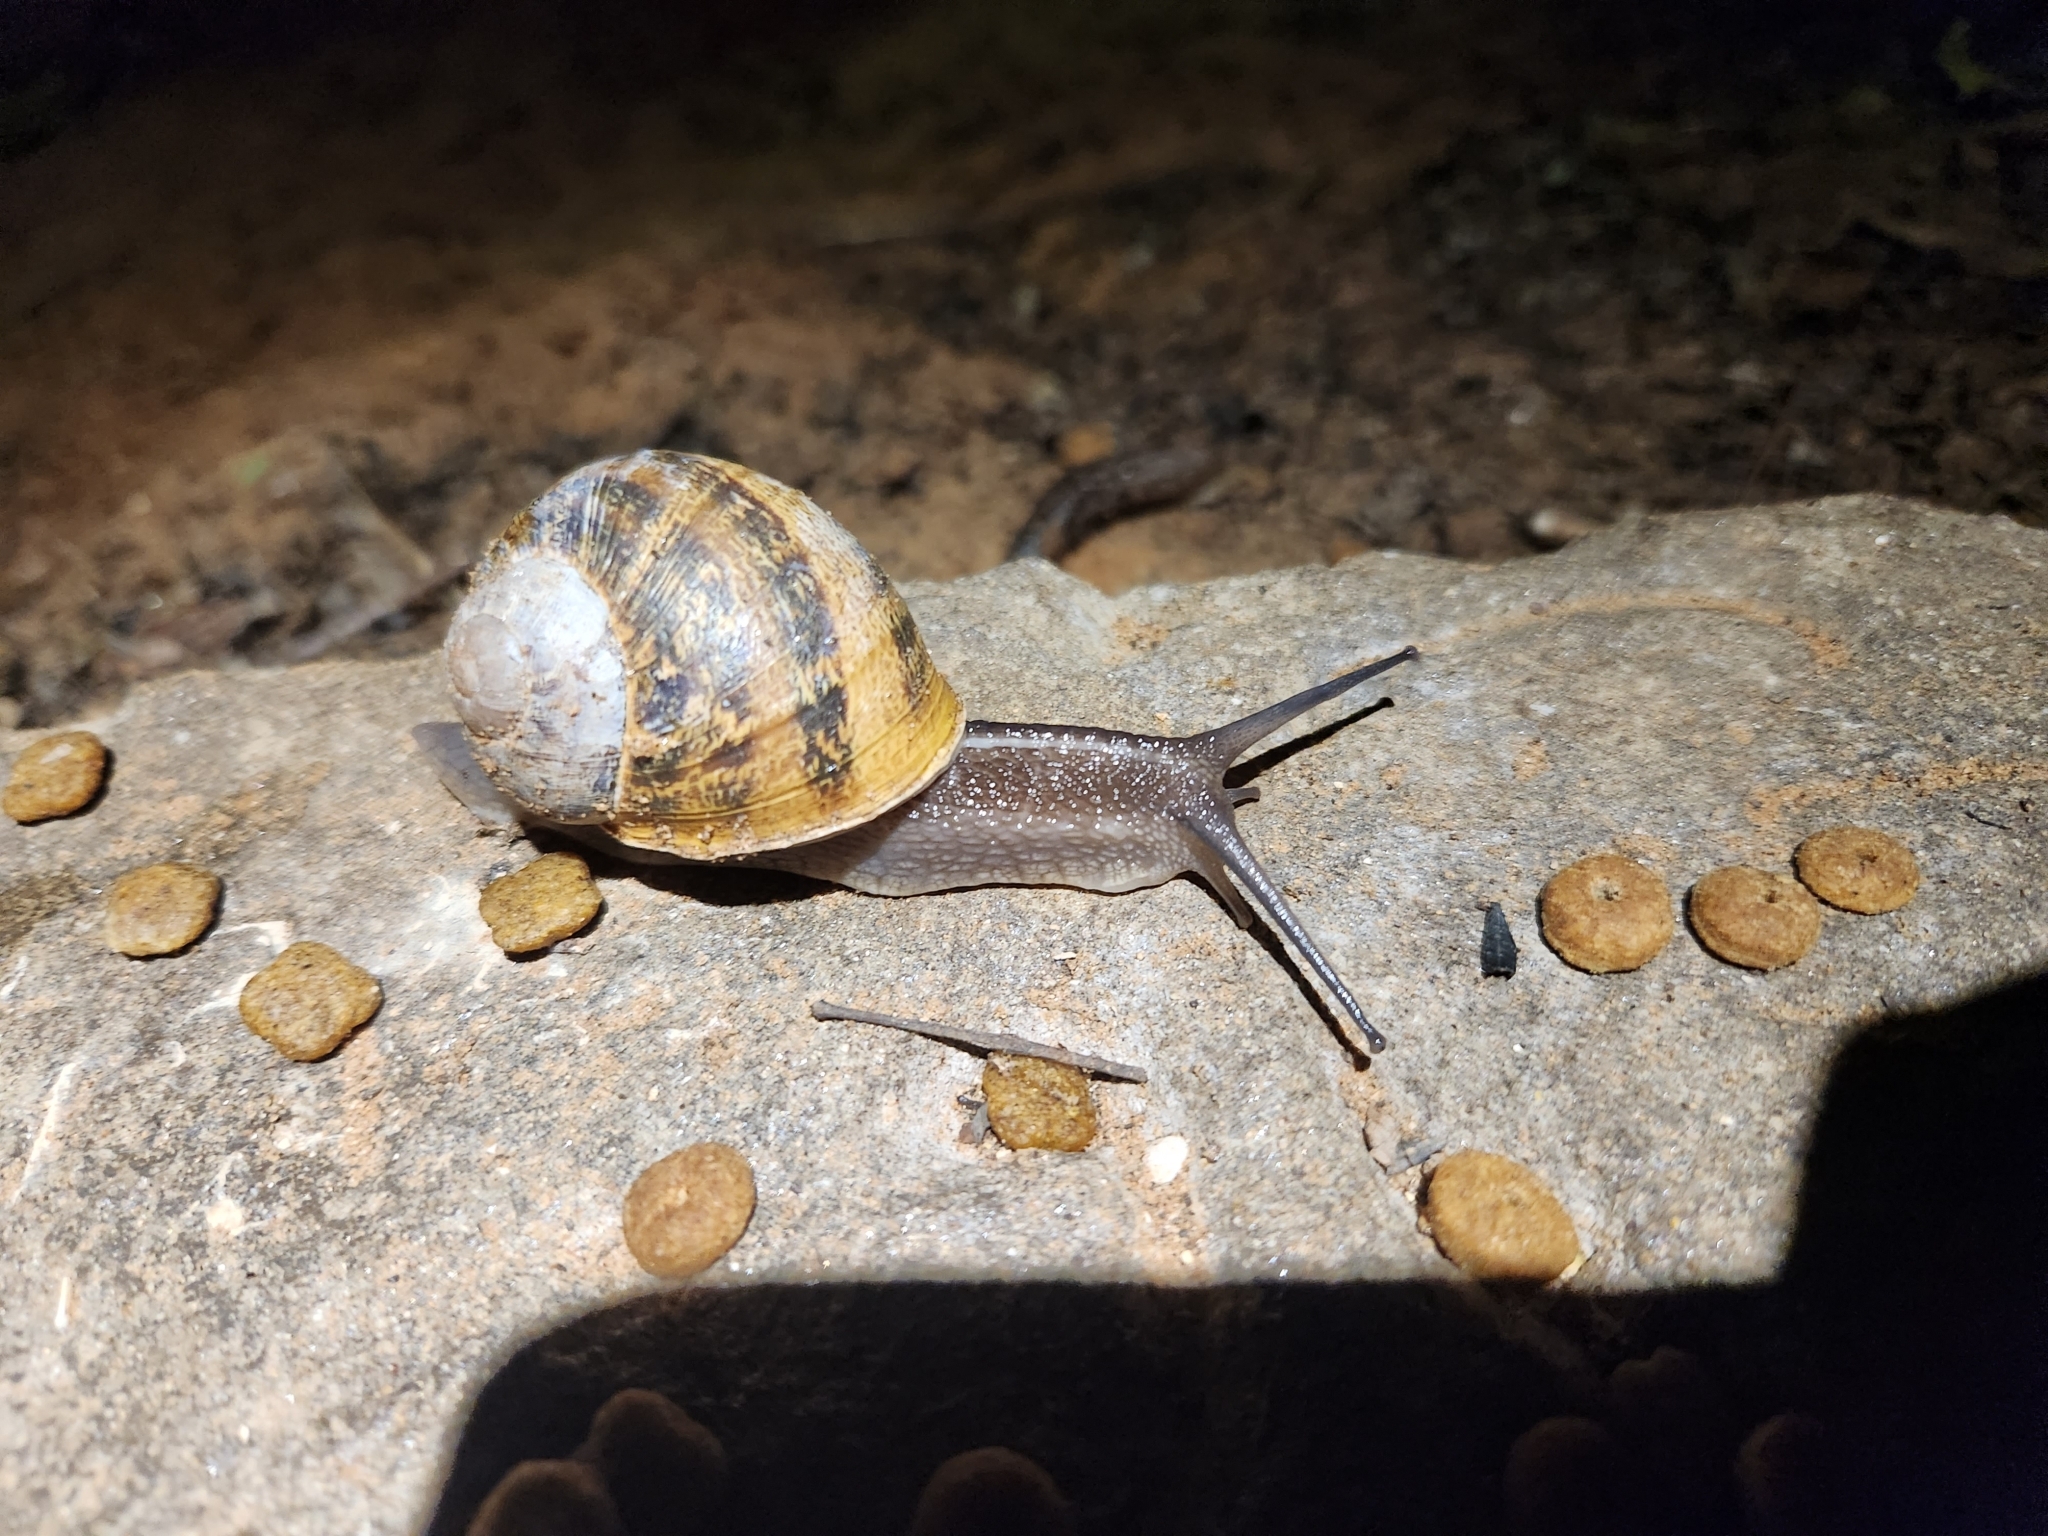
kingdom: Animalia
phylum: Mollusca
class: Gastropoda
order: Stylommatophora
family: Helicidae
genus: Cornu
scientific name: Cornu aspersum
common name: Brown garden snail
